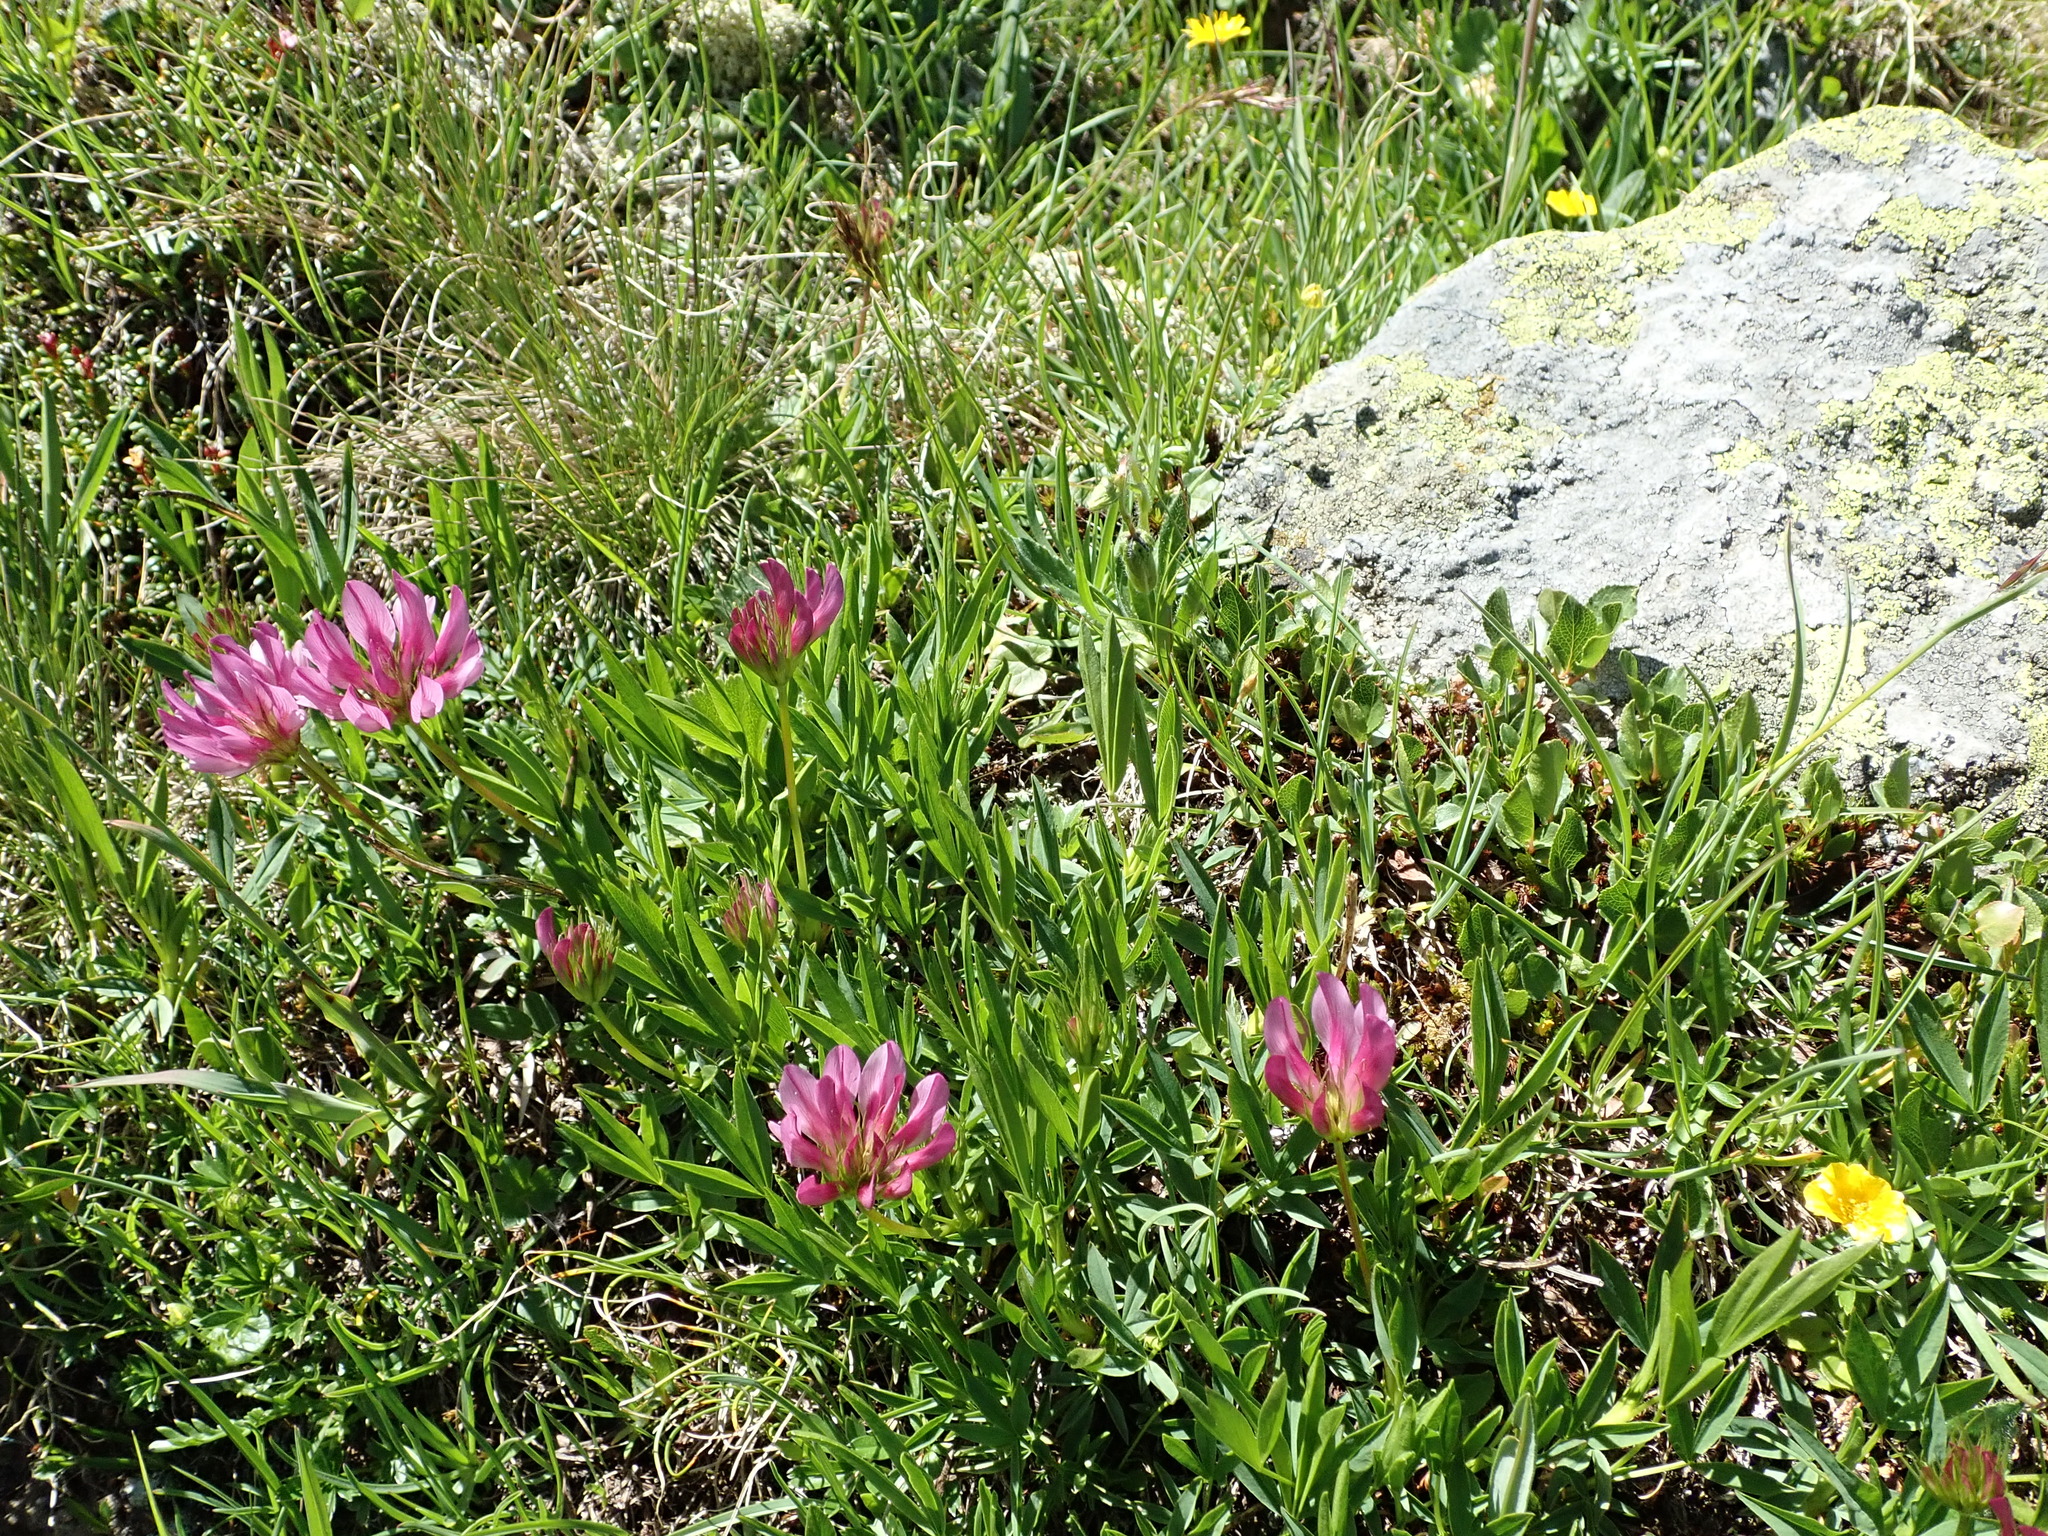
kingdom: Plantae
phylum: Tracheophyta
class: Magnoliopsida
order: Fabales
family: Fabaceae
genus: Trifolium
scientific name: Trifolium alpinum
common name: Alpine clover
